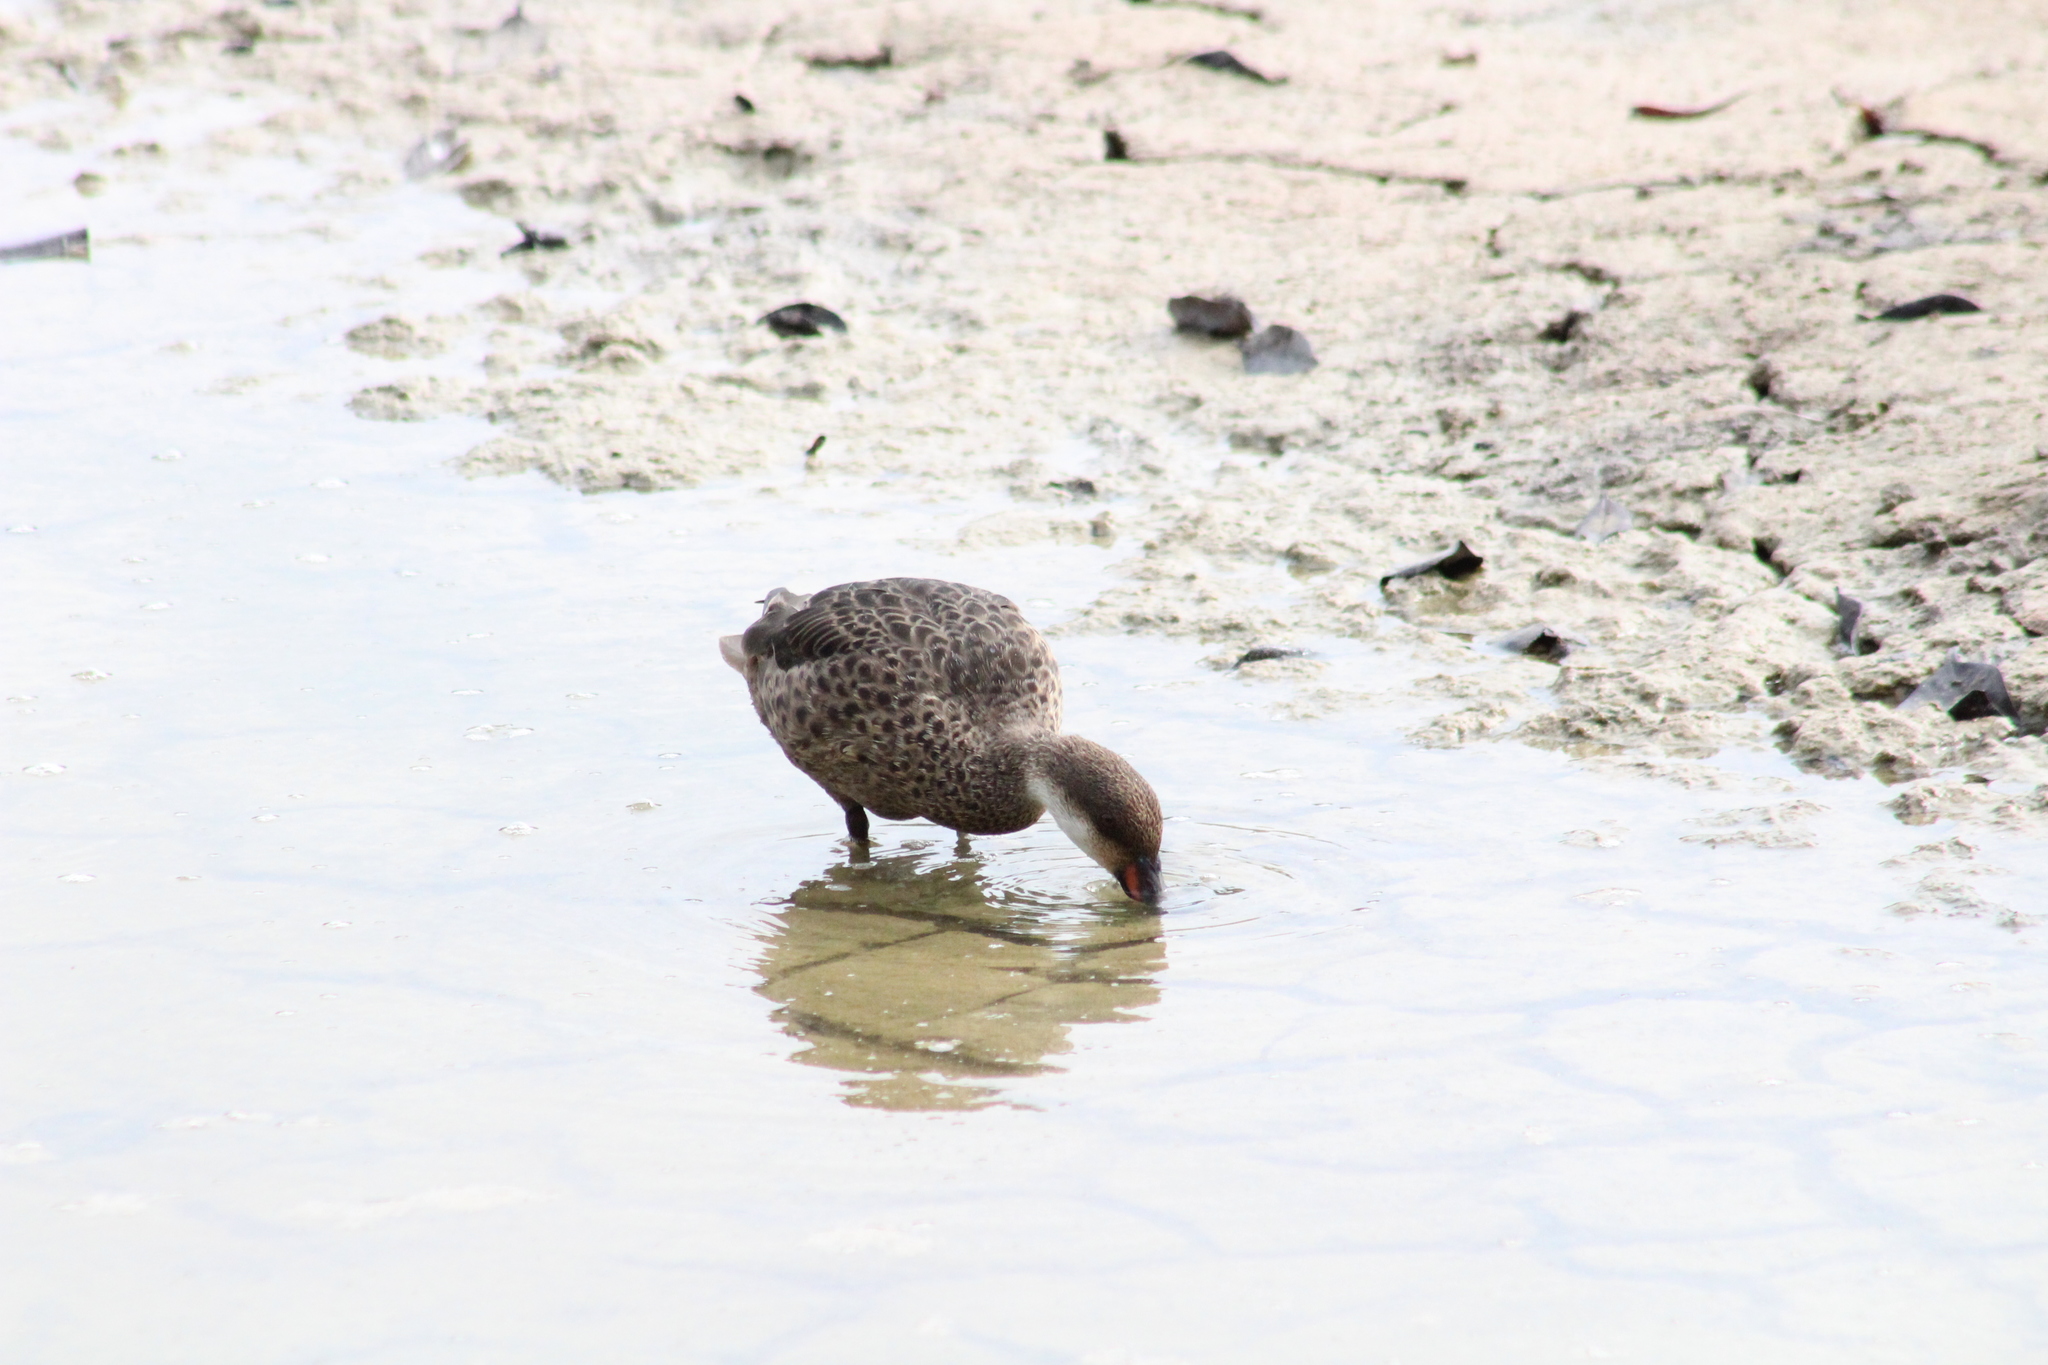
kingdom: Animalia
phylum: Chordata
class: Aves
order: Anseriformes
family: Anatidae
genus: Anas
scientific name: Anas bahamensis
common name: White-cheeked pintail
